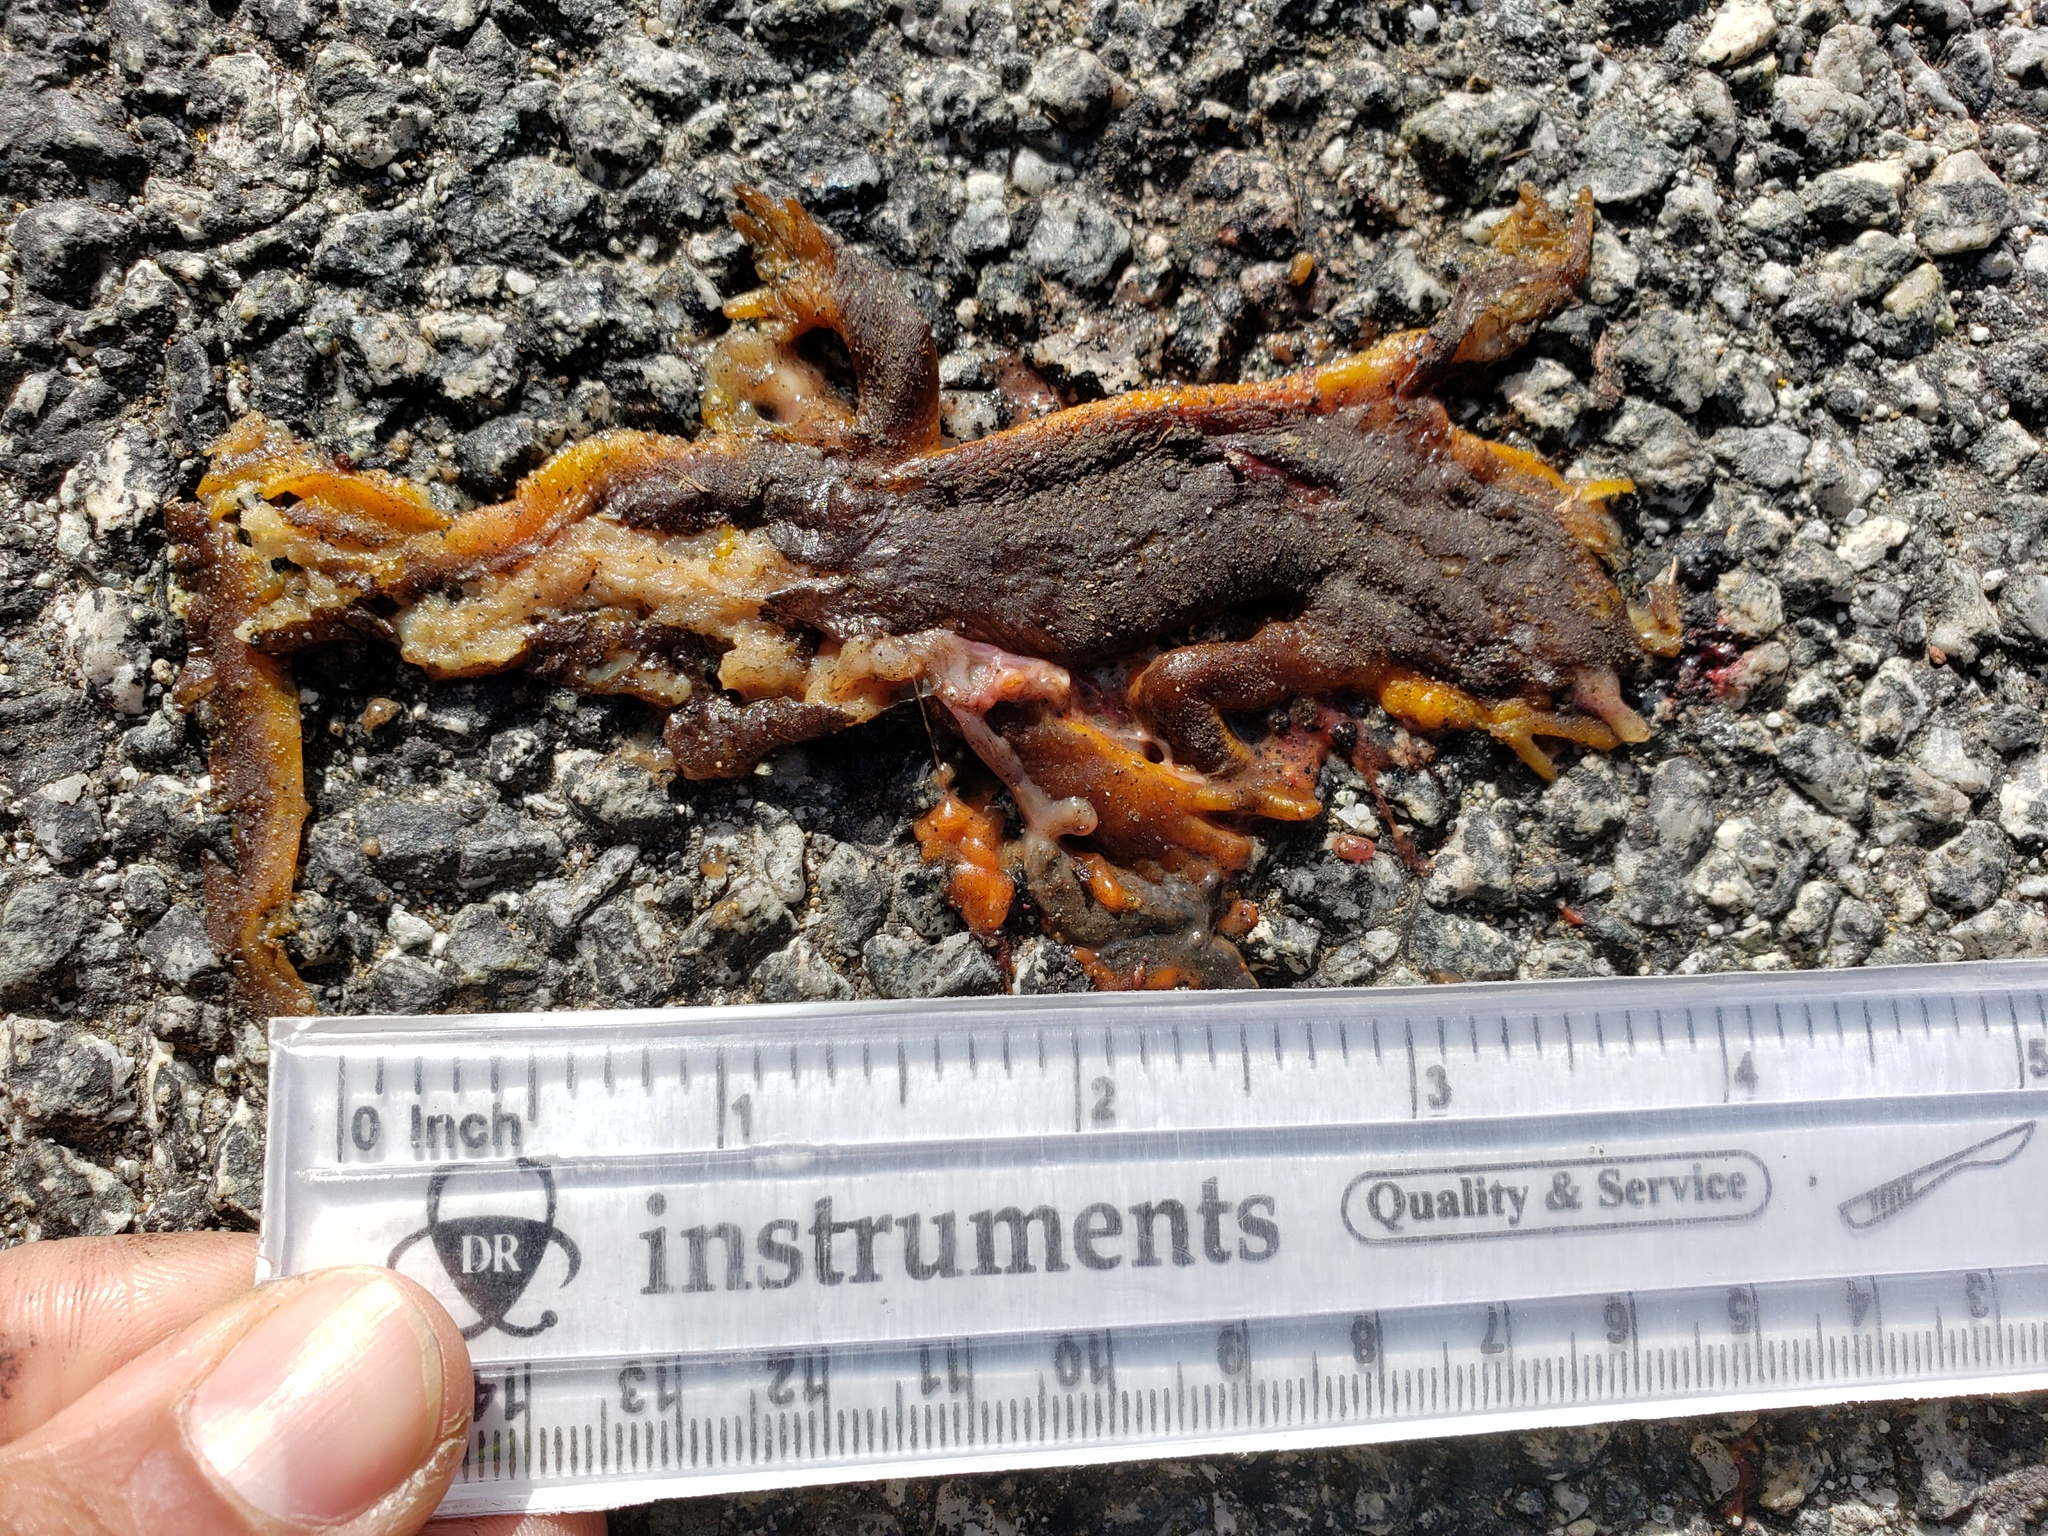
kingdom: Animalia
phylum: Chordata
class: Amphibia
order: Caudata
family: Salamandridae
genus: Taricha
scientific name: Taricha
